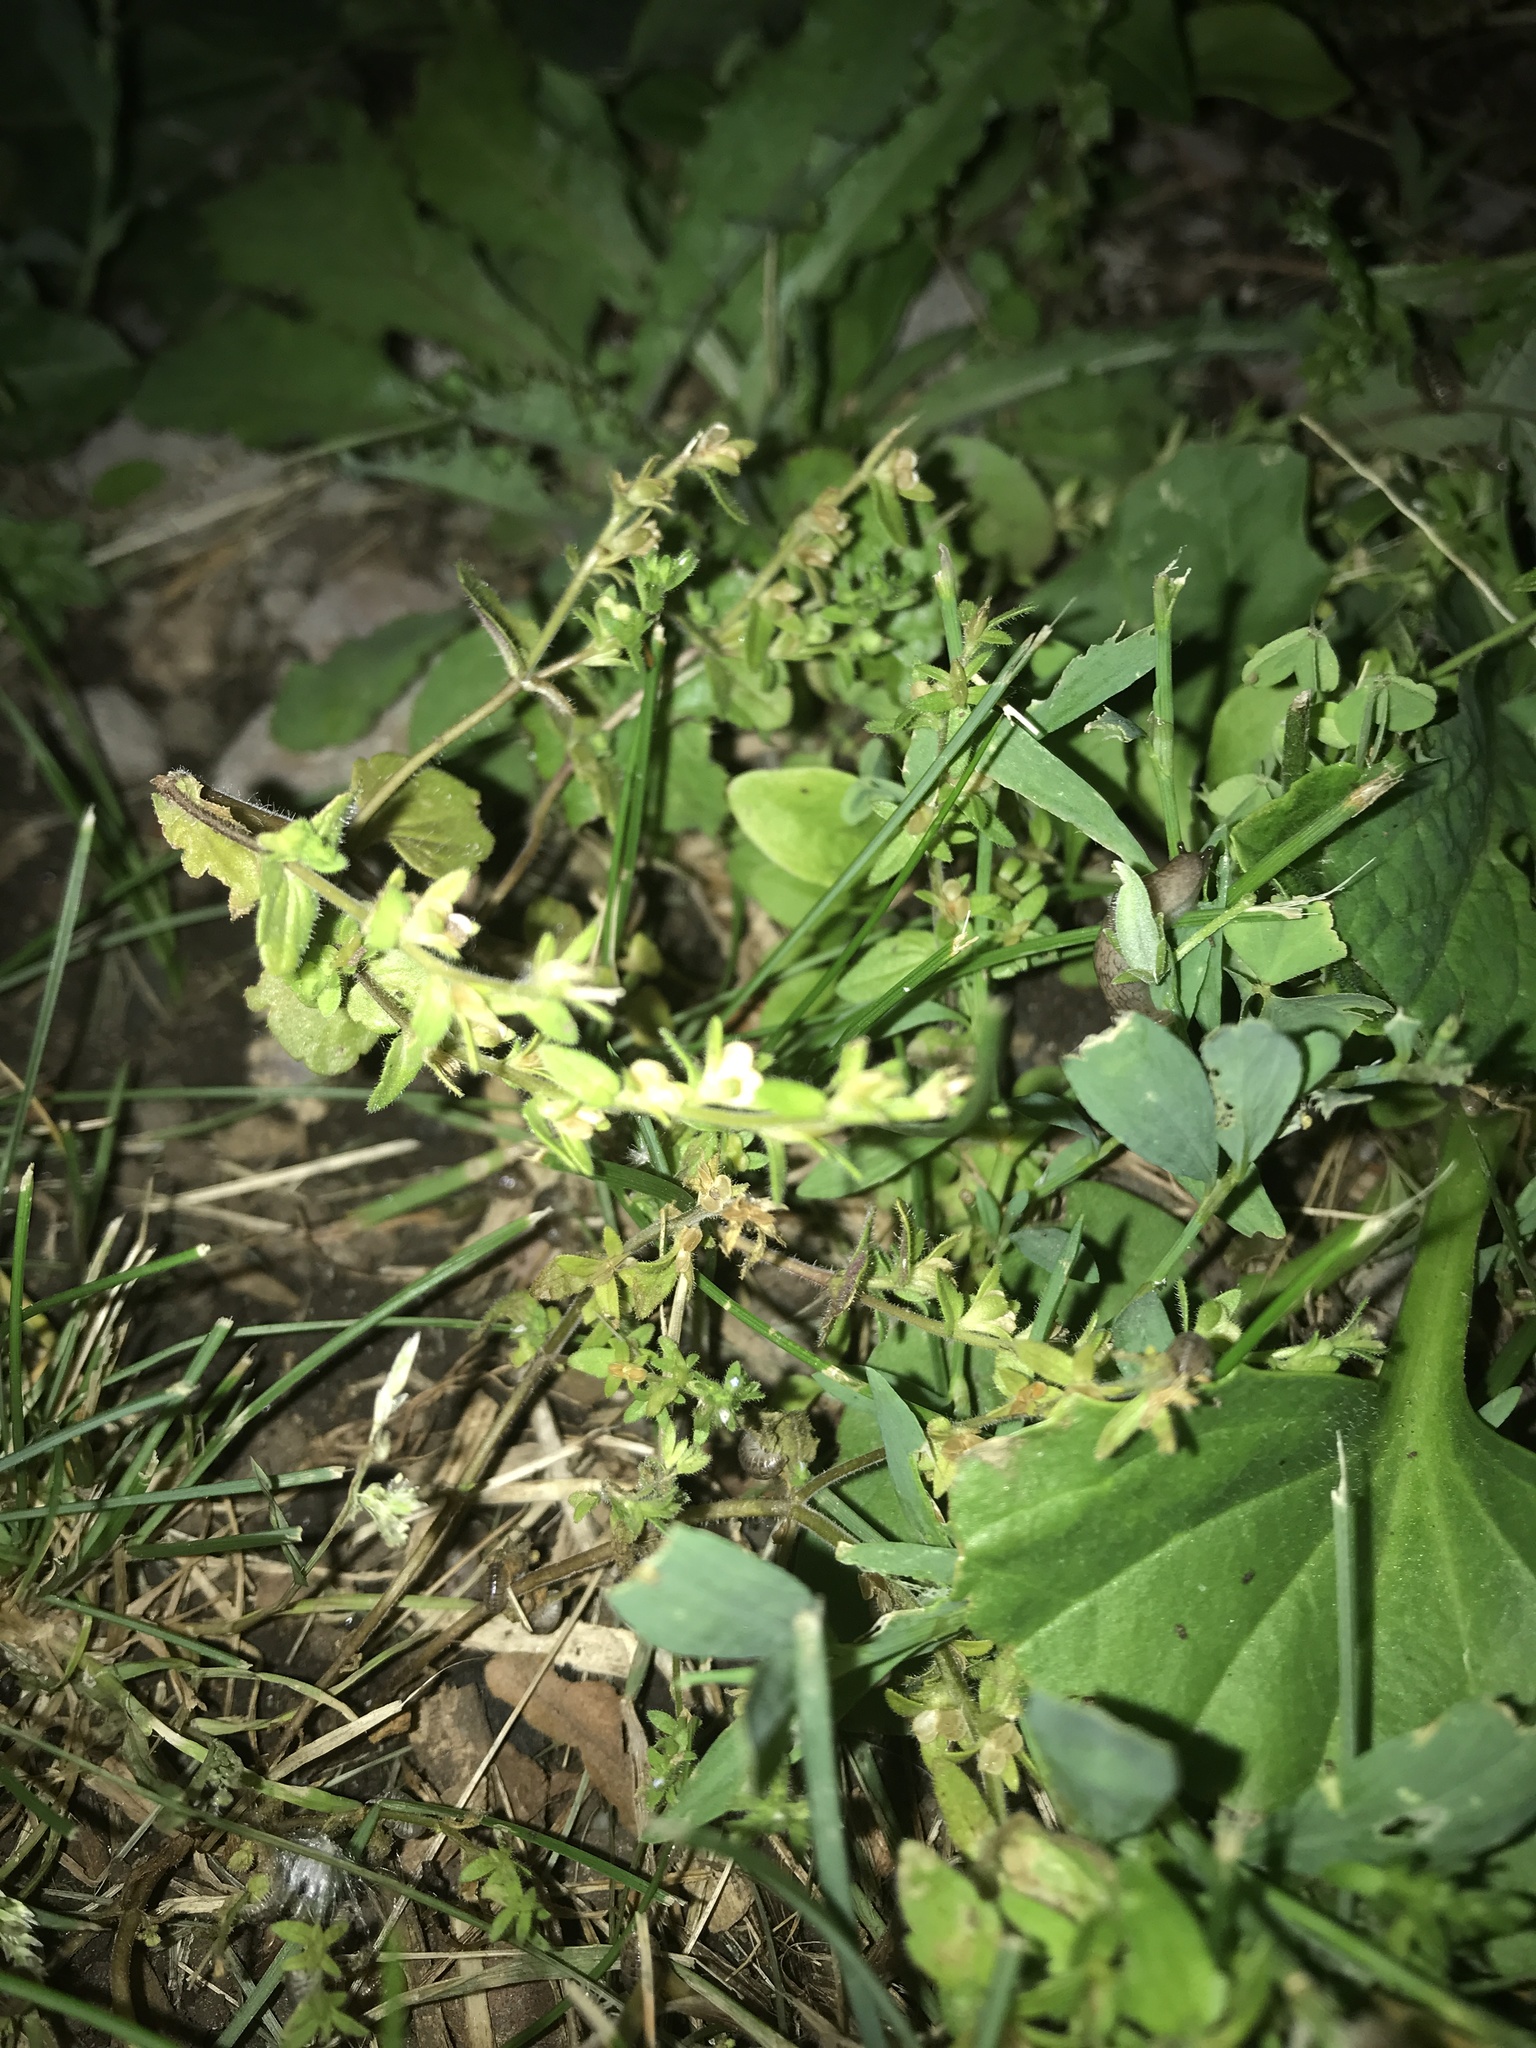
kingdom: Plantae
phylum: Tracheophyta
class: Magnoliopsida
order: Lamiales
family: Plantaginaceae
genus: Veronica
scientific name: Veronica arvensis
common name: Corn speedwell
